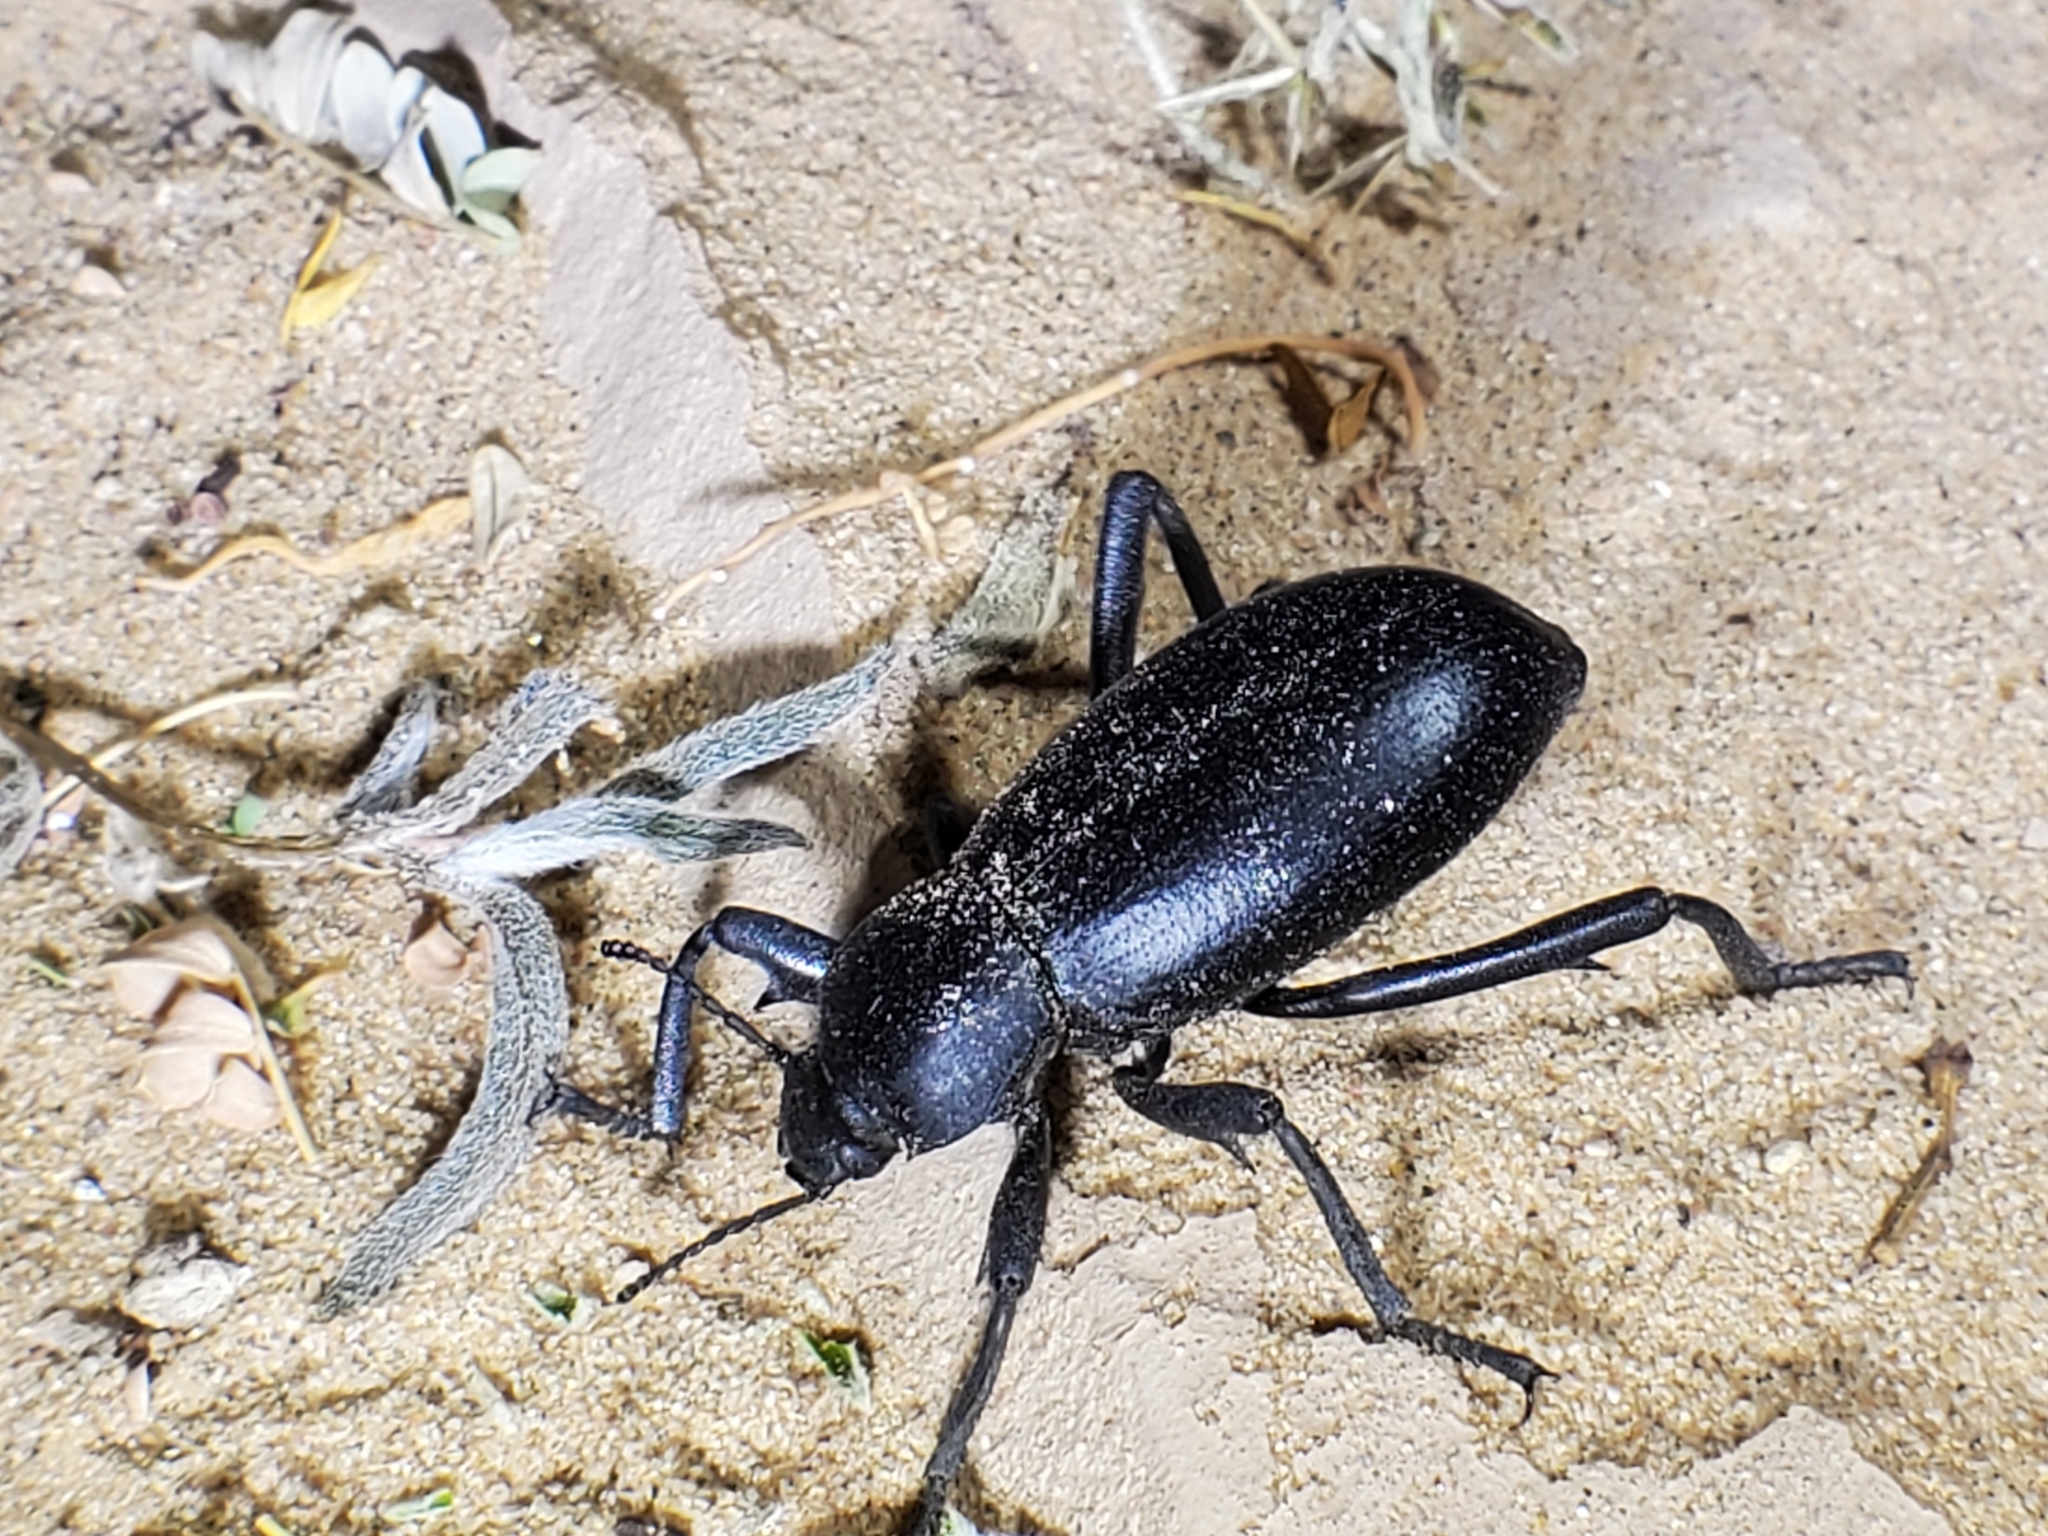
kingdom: Animalia
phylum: Arthropoda
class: Insecta
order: Coleoptera
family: Tenebrionidae
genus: Eleodes
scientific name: Eleodes armata
